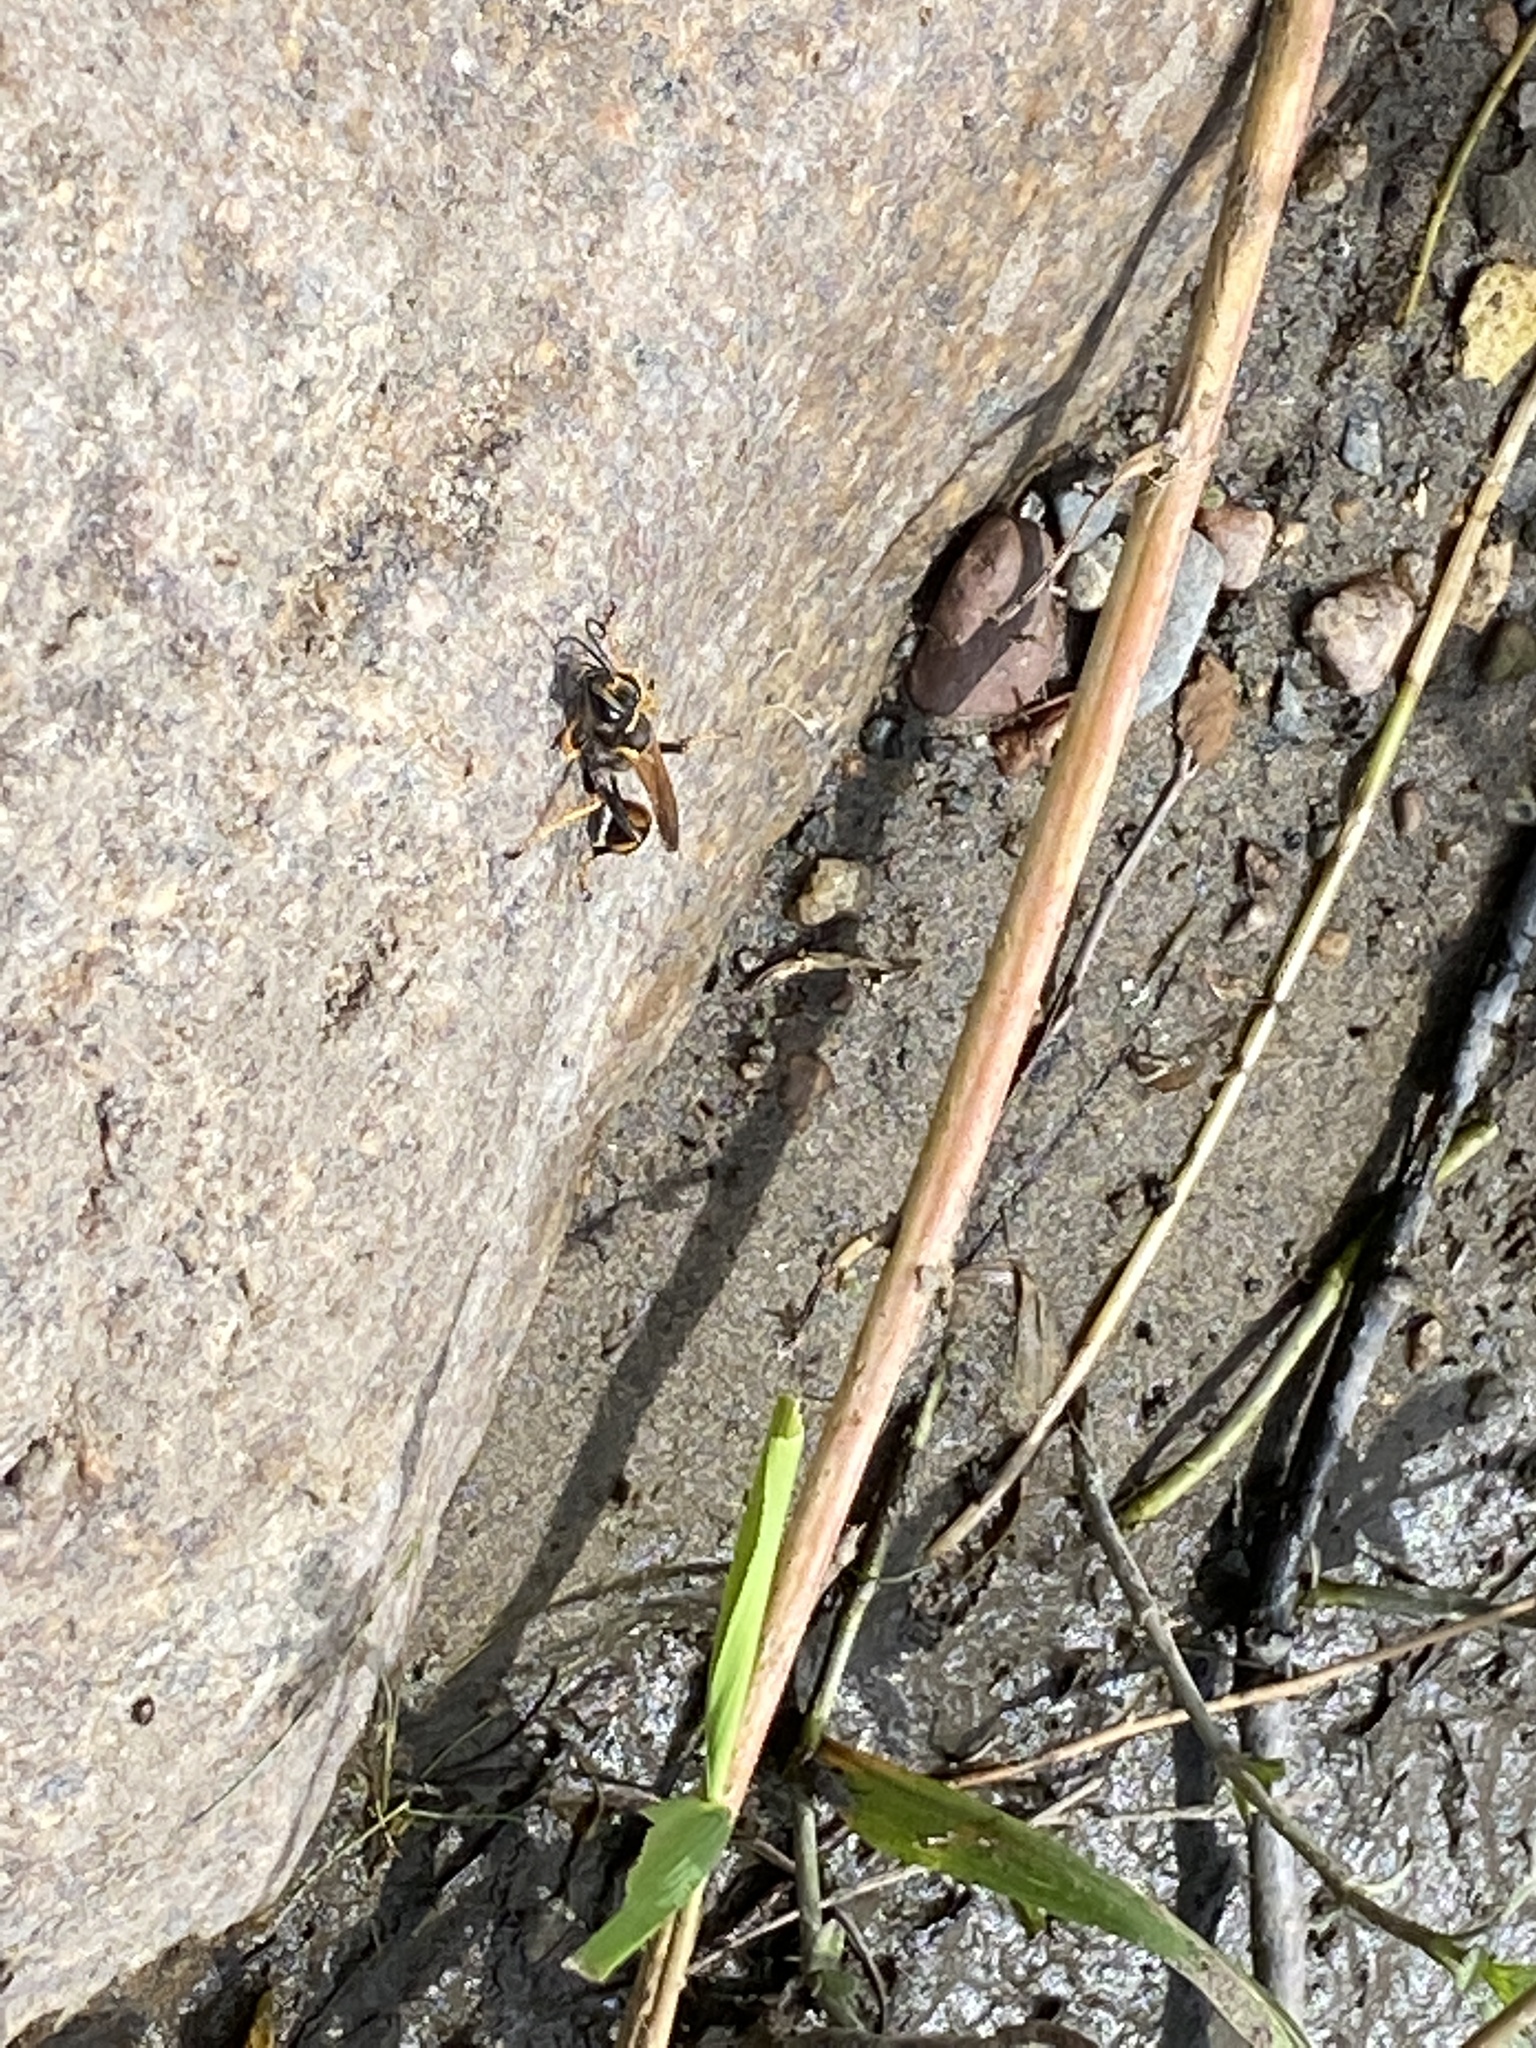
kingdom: Animalia
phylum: Arthropoda
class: Insecta
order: Hymenoptera
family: Sphecidae
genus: Sceliphron
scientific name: Sceliphron caementarium
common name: Mud dauber
